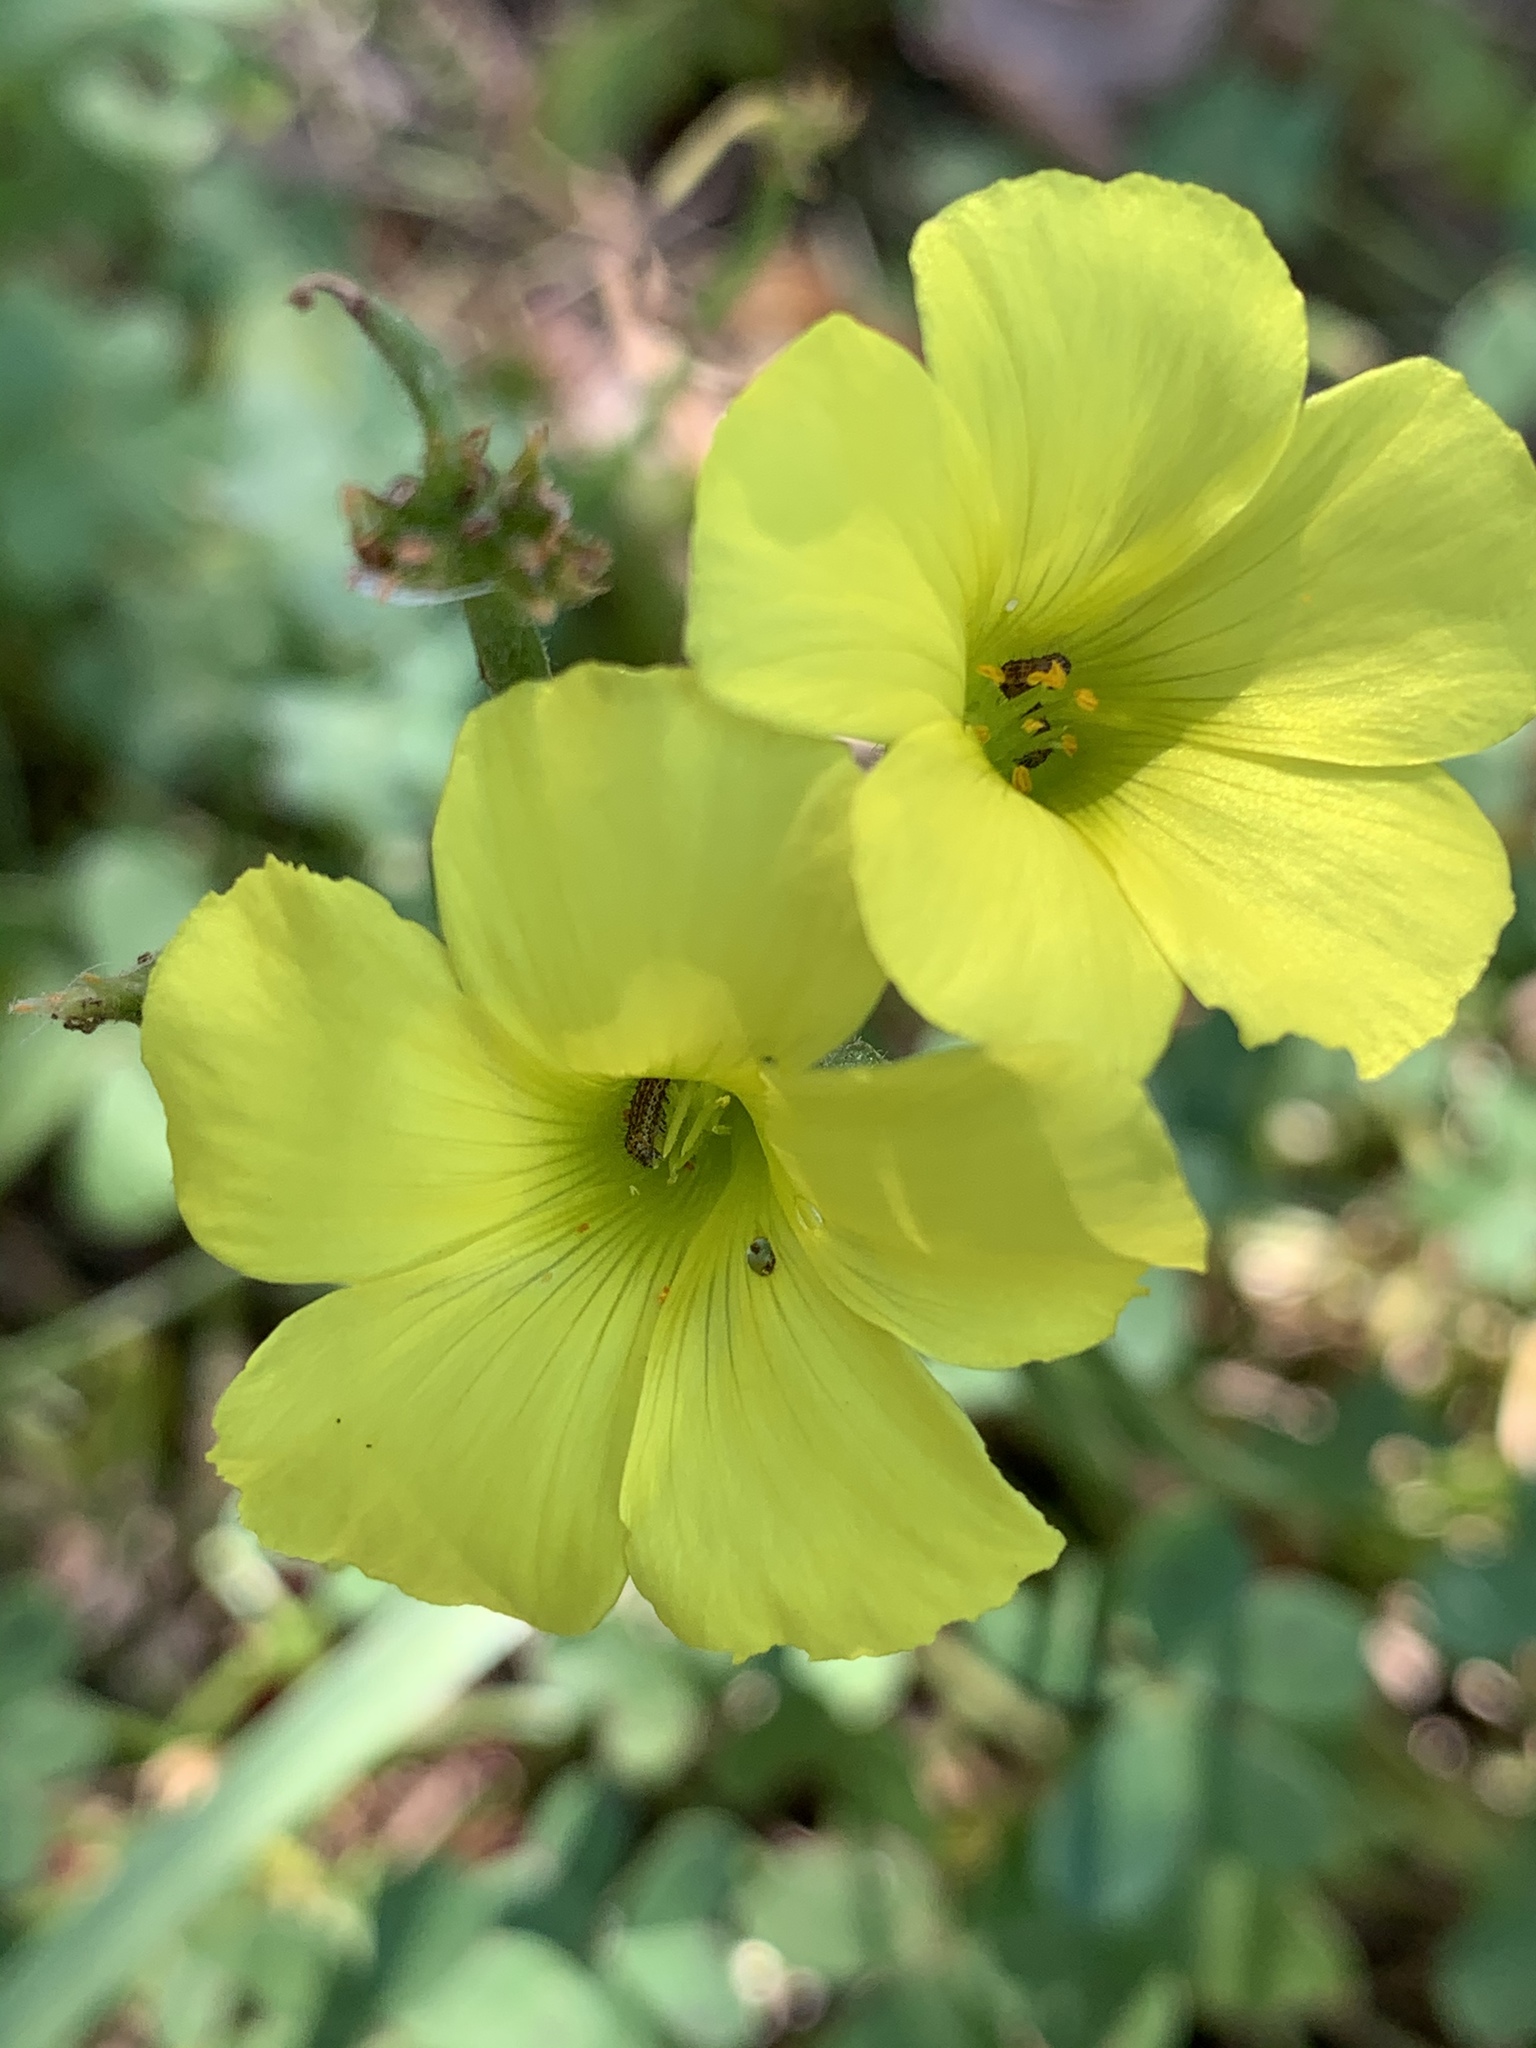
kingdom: Plantae
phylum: Tracheophyta
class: Magnoliopsida
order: Oxalidales
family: Oxalidaceae
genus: Oxalis
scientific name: Oxalis pes-caprae
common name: Bermuda-buttercup
